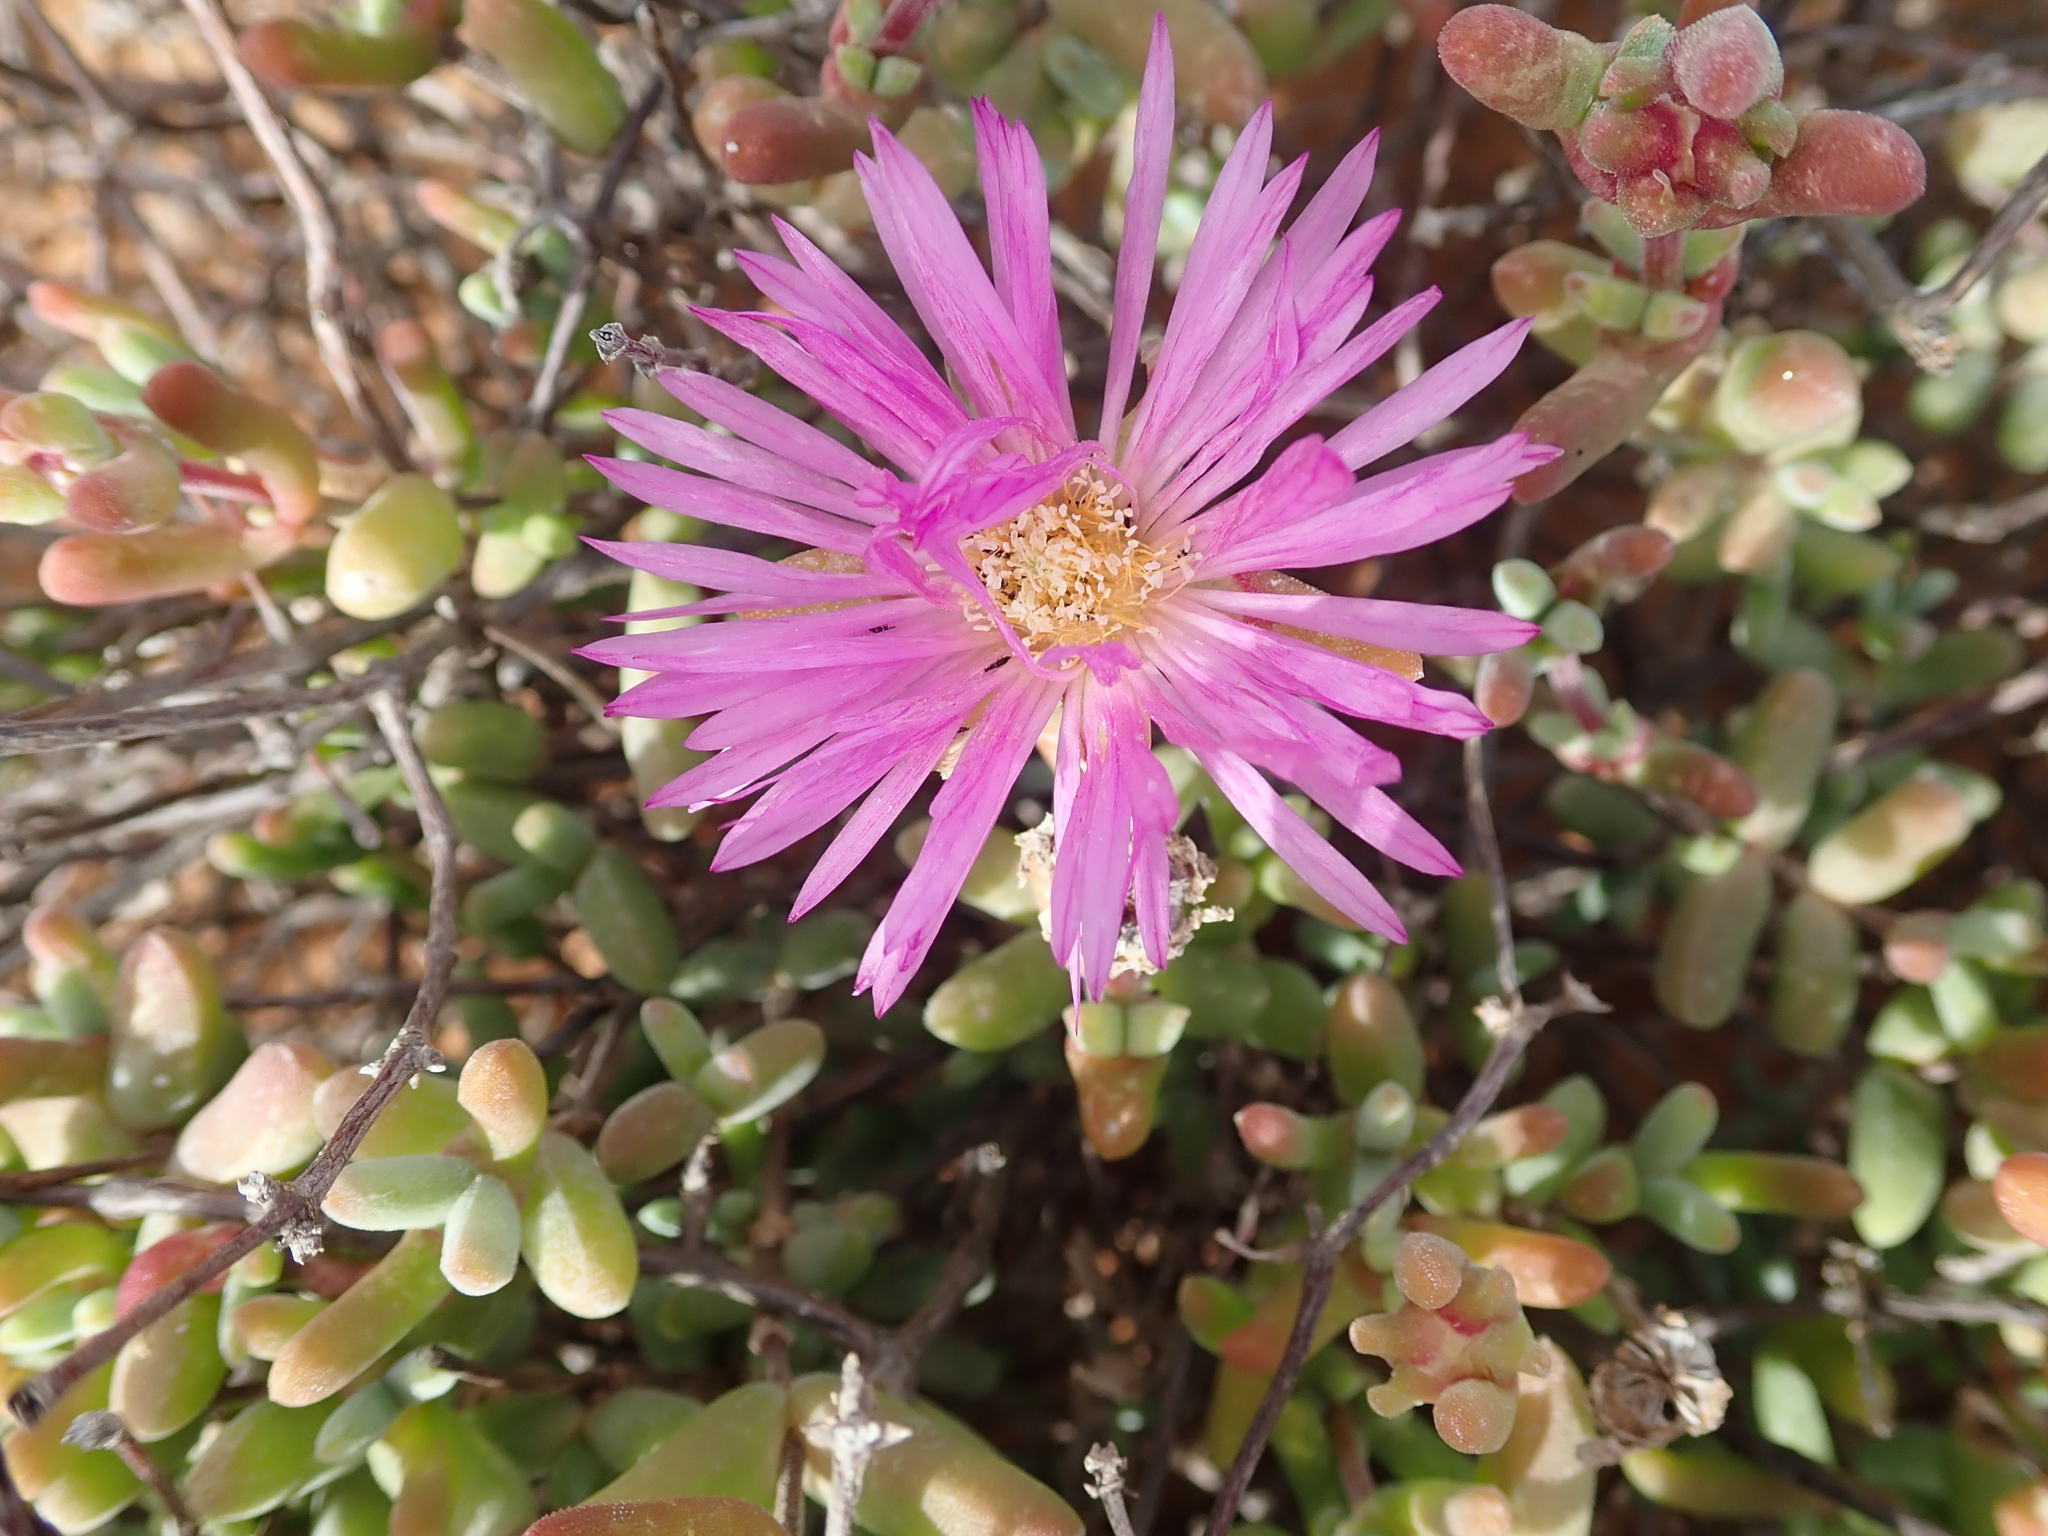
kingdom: Plantae
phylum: Tracheophyta
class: Magnoliopsida
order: Caryophyllales
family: Aizoaceae
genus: Drosanthemopsis
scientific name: Drosanthemopsis diversifolia
